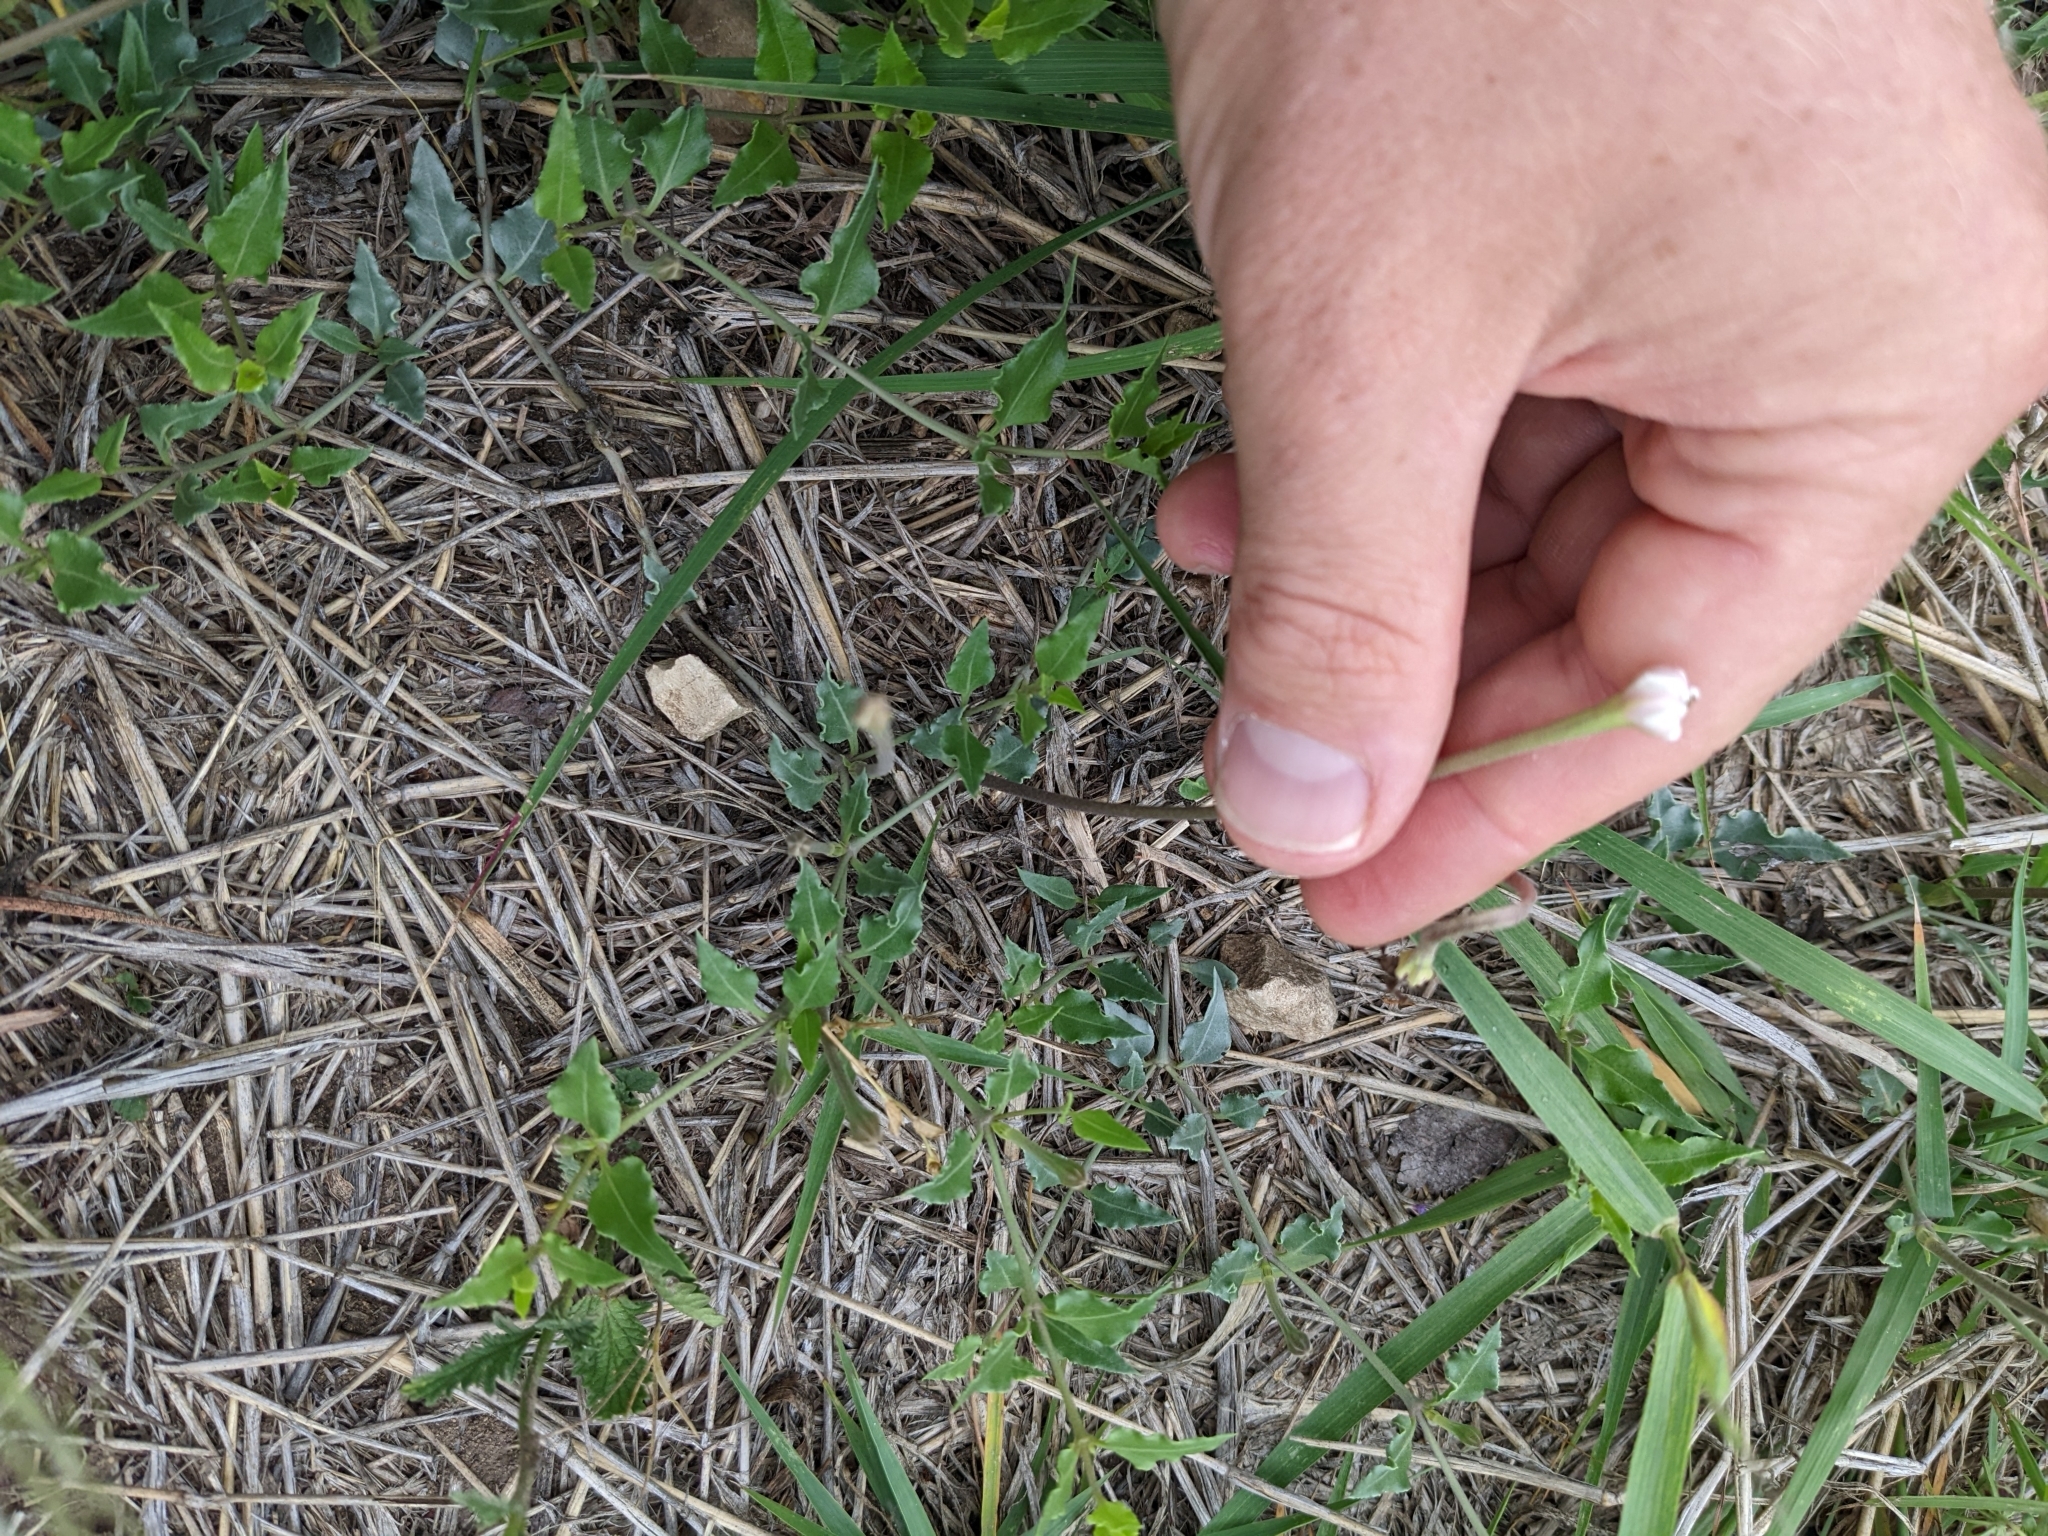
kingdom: Plantae
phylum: Tracheophyta
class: Magnoliopsida
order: Caryophyllales
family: Nyctaginaceae
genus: Acleisanthes
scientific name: Acleisanthes longiflora
